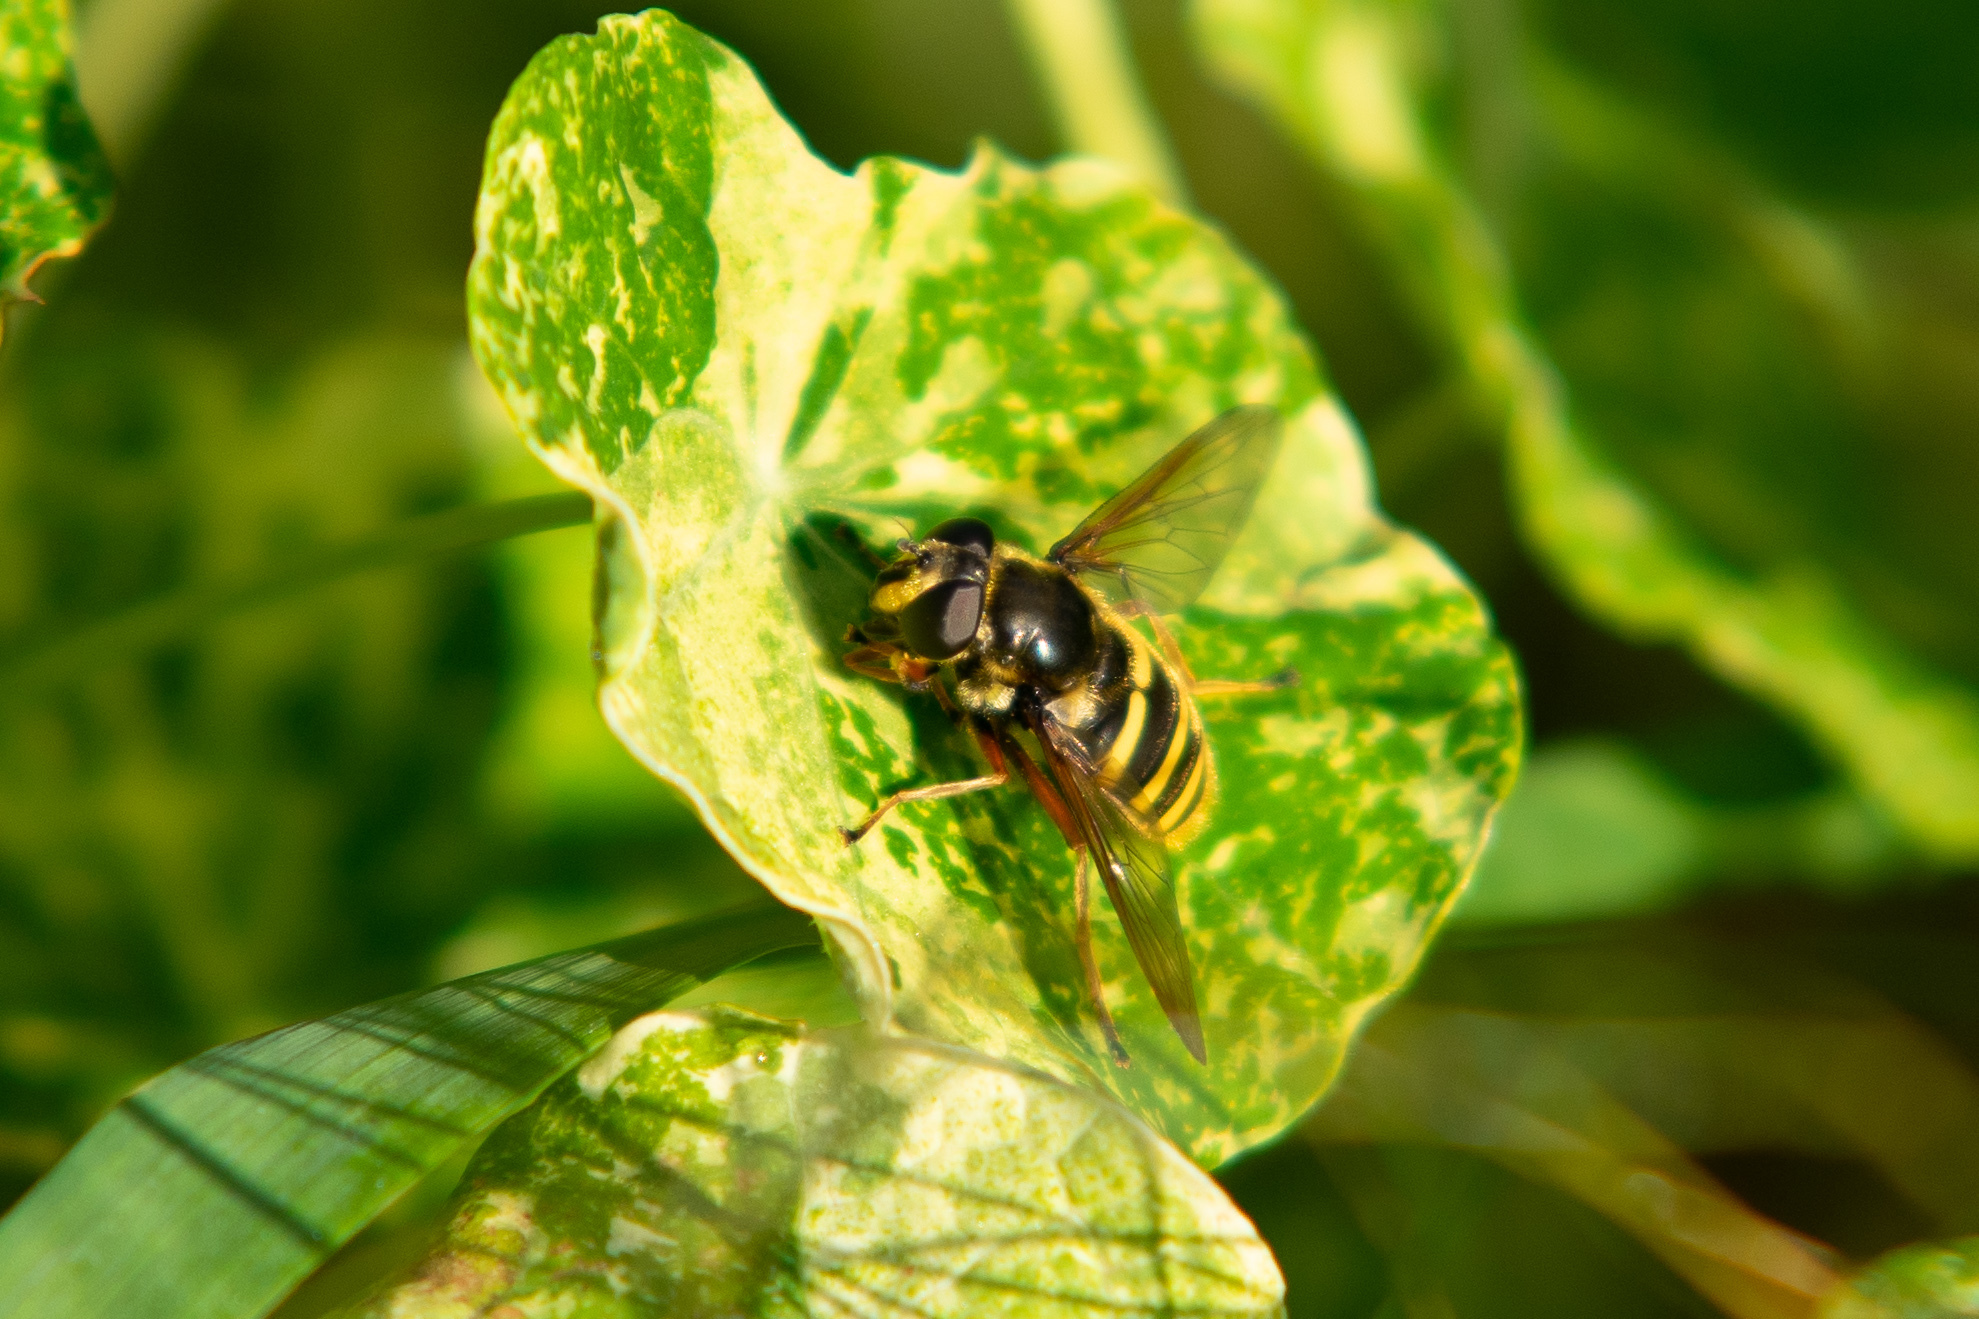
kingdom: Animalia
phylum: Arthropoda
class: Insecta
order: Diptera
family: Syrphidae
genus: Sericomyia
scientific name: Sericomyia silentis
